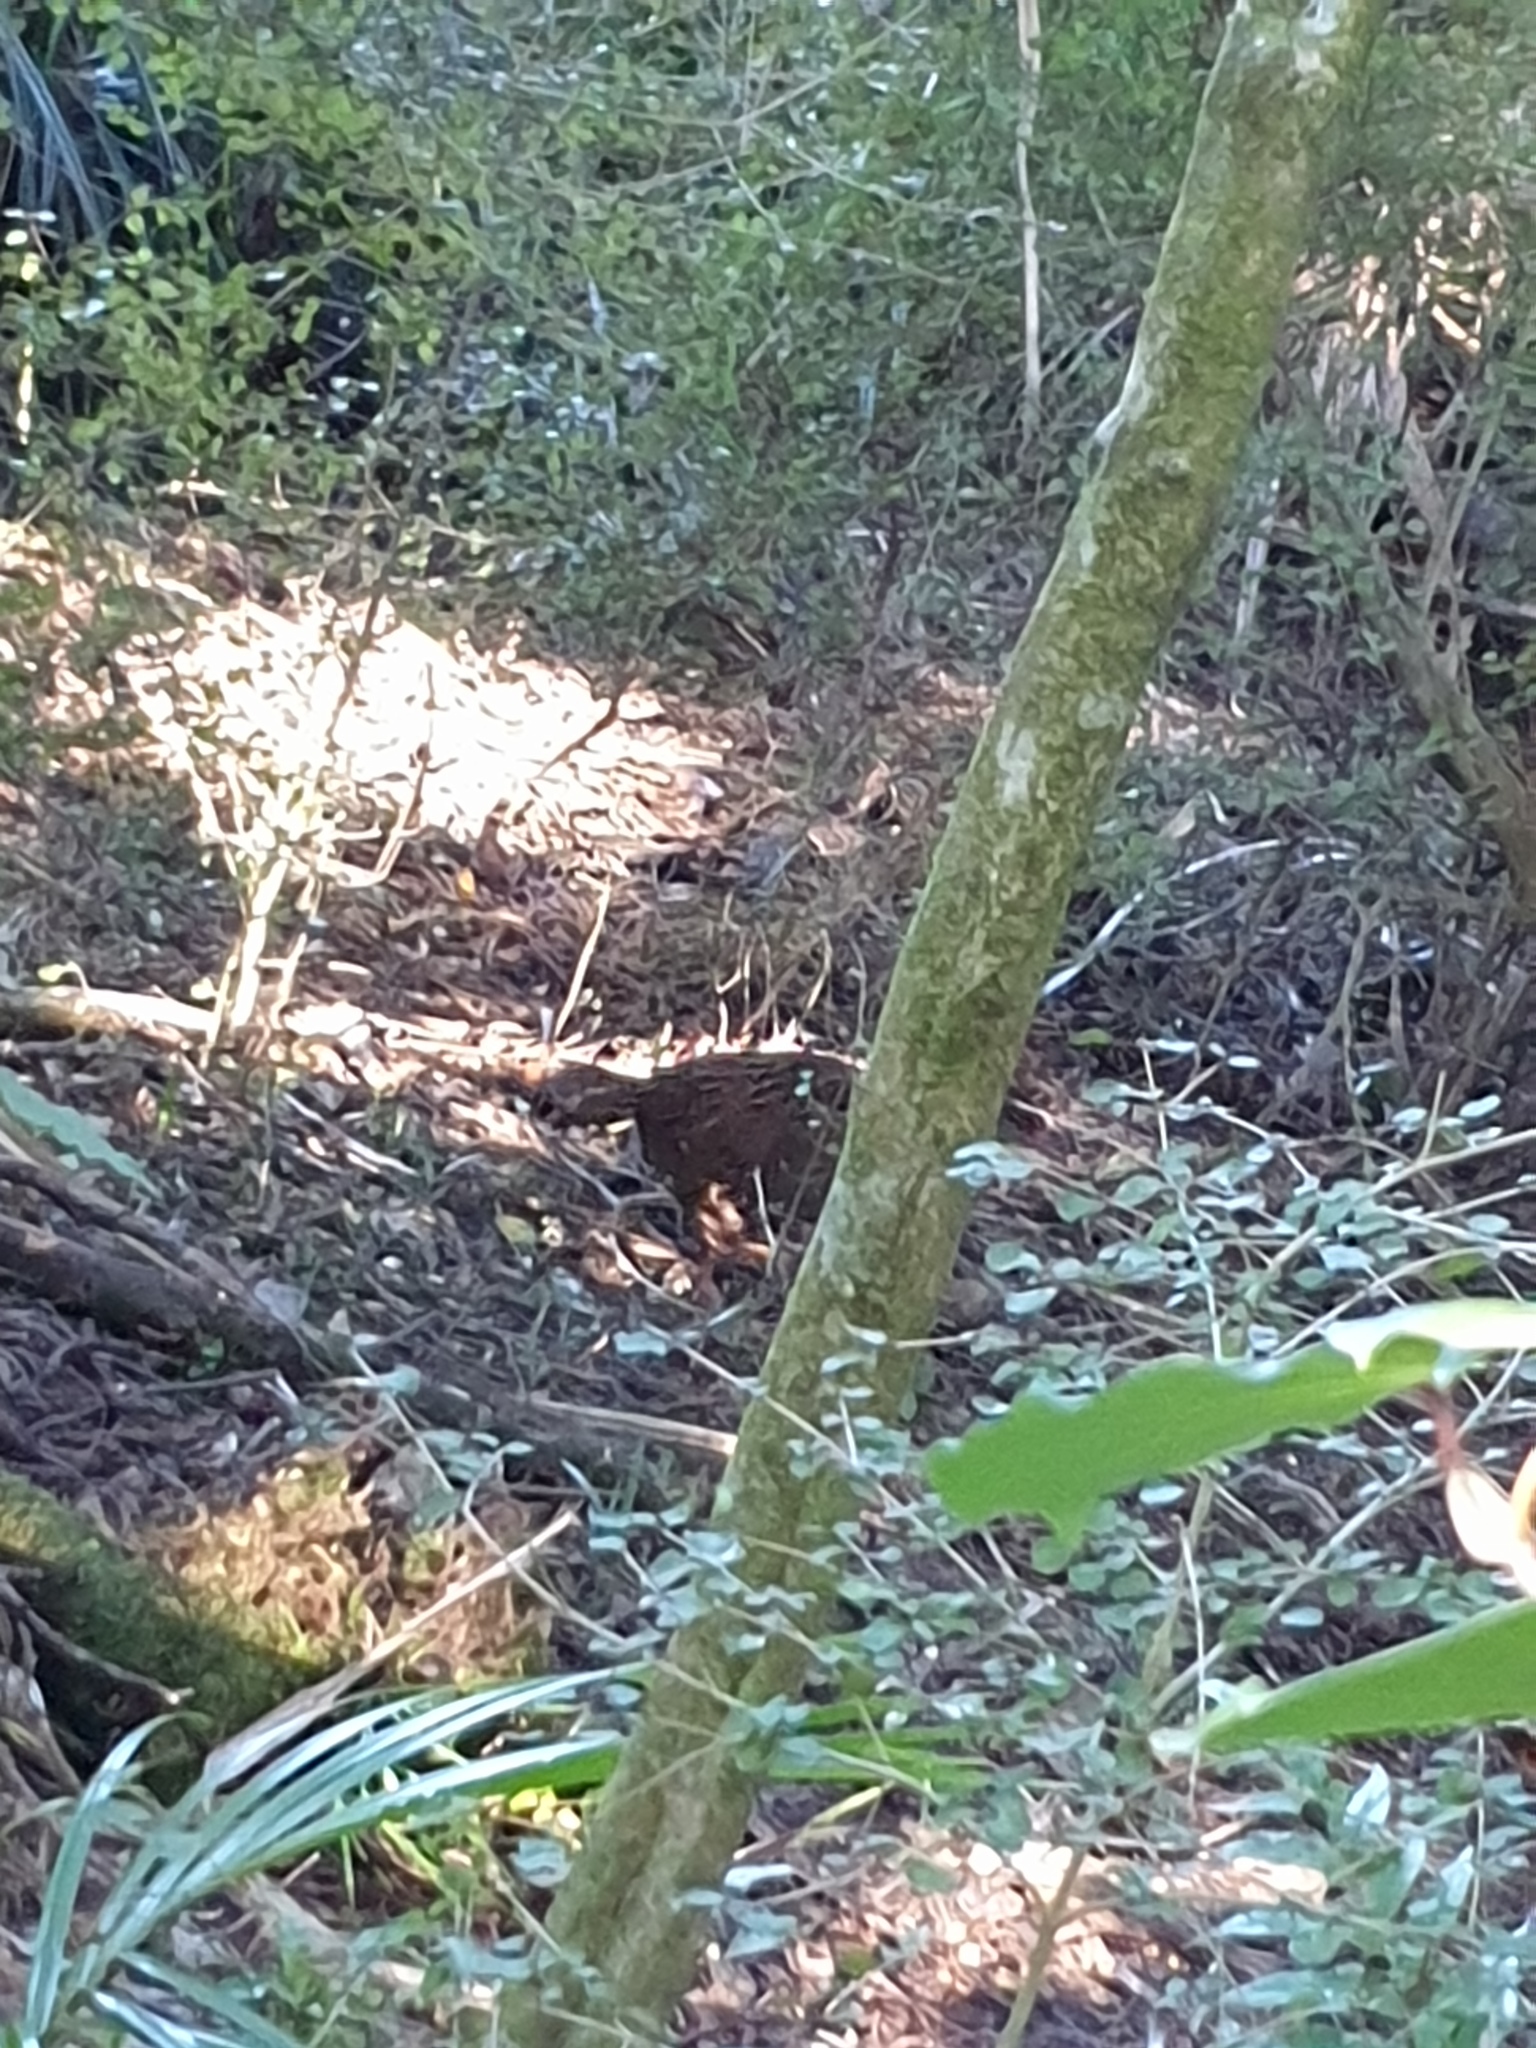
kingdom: Animalia
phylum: Chordata
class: Aves
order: Gruiformes
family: Rallidae
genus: Gallirallus
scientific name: Gallirallus australis
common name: Weka
